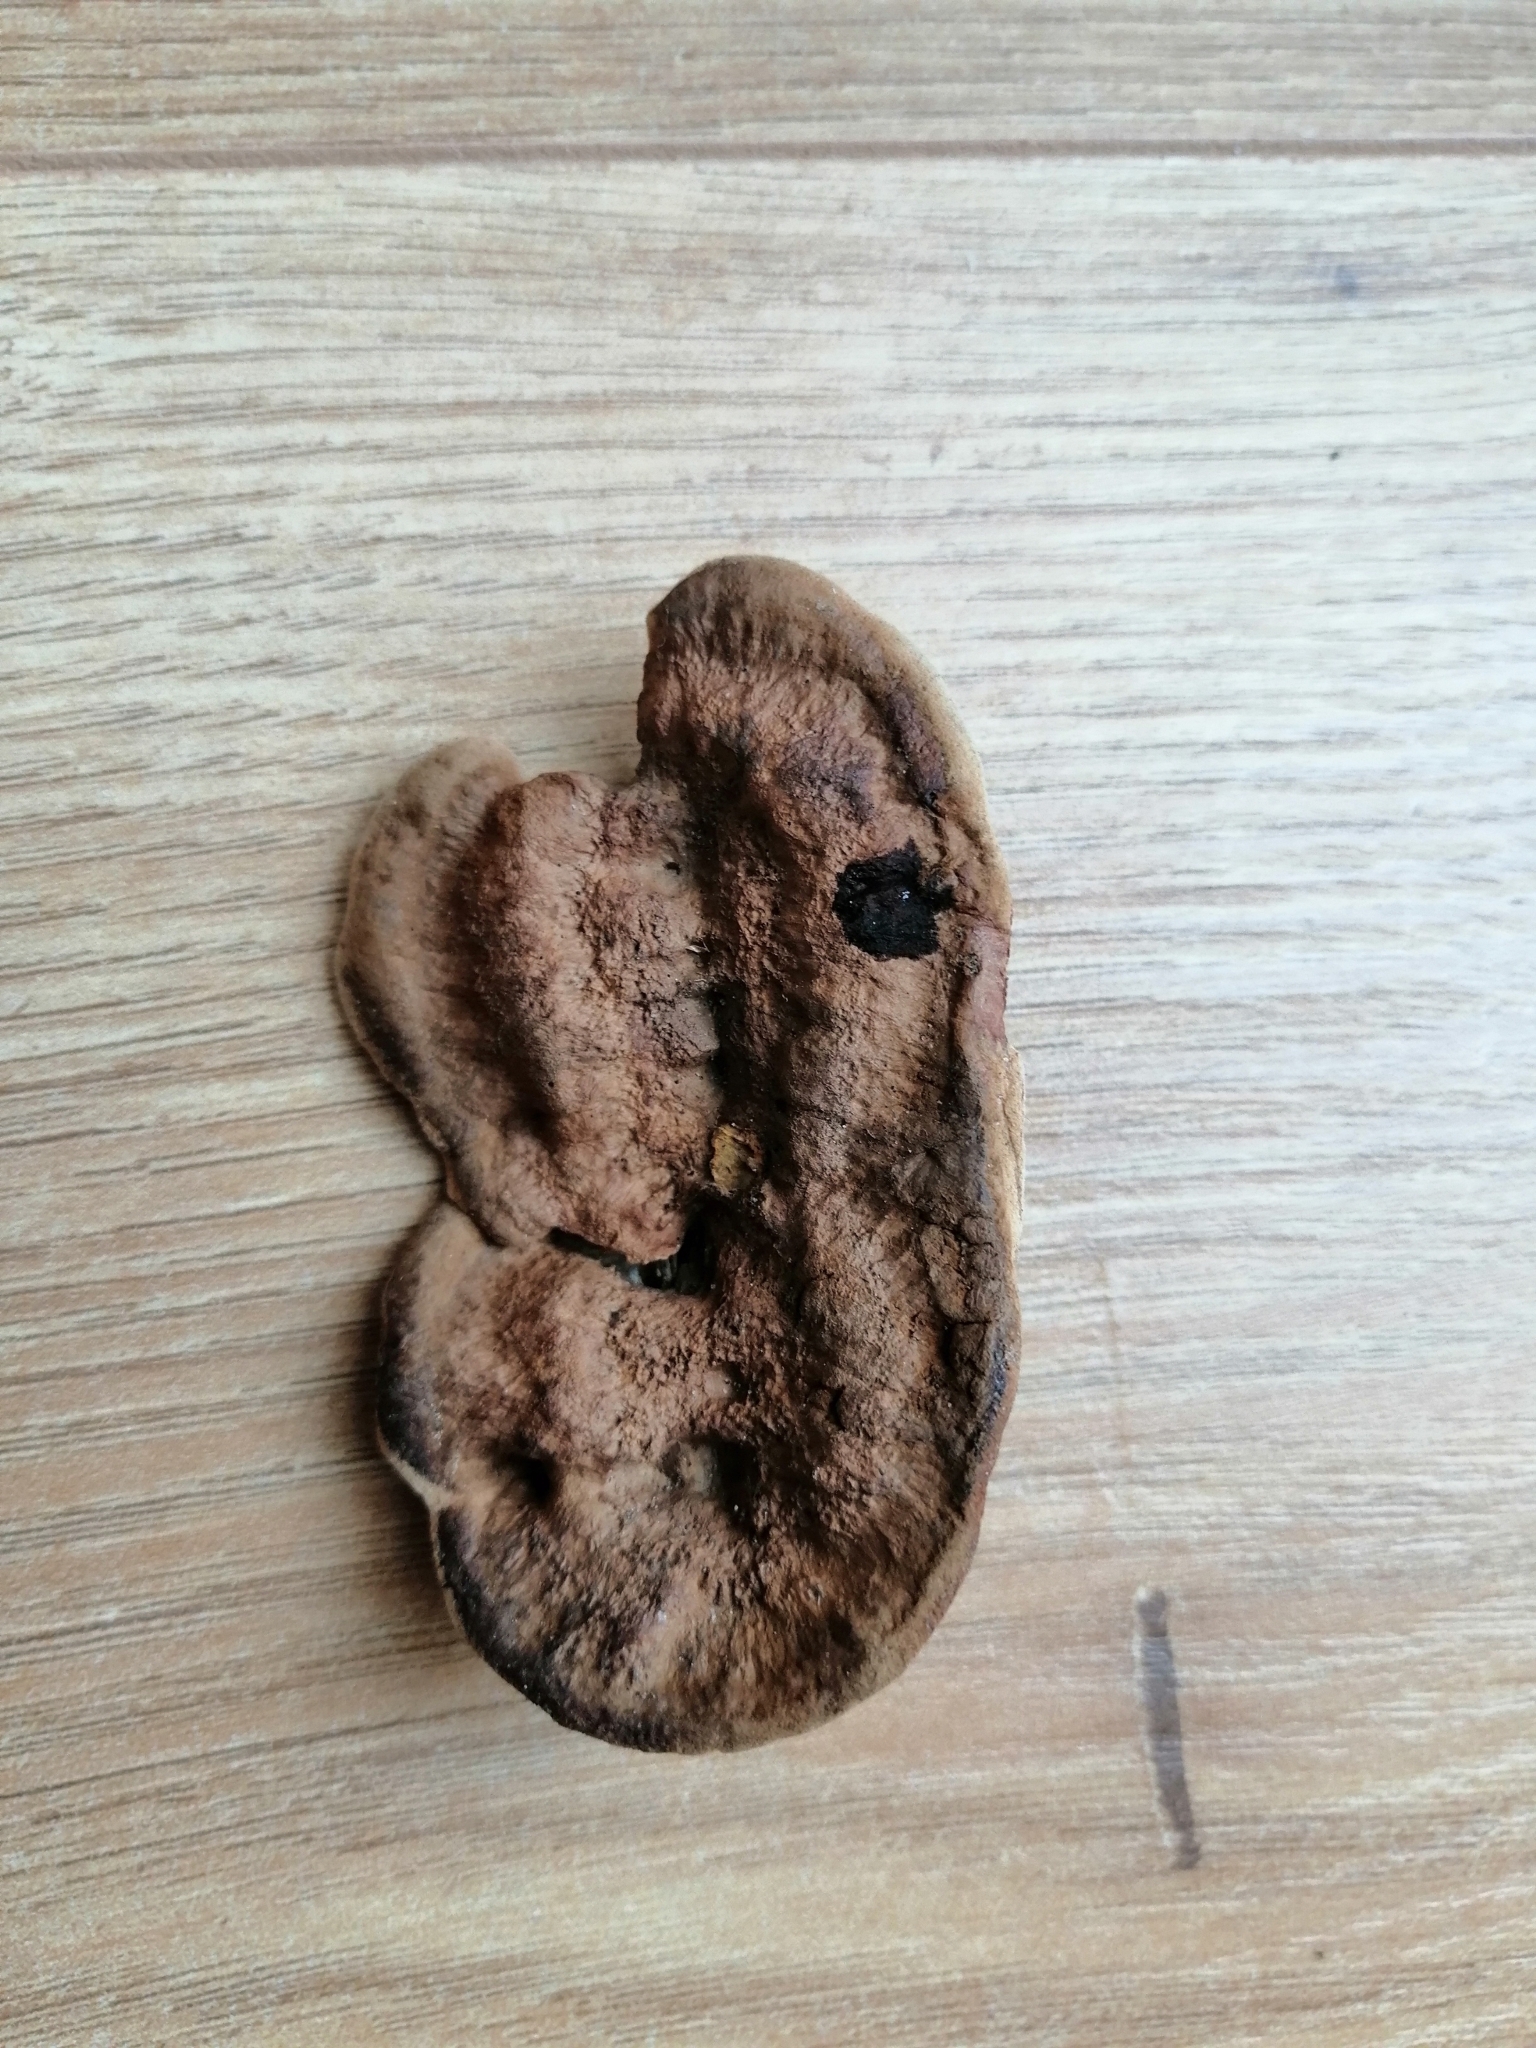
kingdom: Fungi
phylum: Basidiomycota
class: Agaricomycetes
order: Gloeophyllales
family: Gloeophyllaceae
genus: Gloeophyllum
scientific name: Gloeophyllum sepiarium
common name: Conifer mazegill
